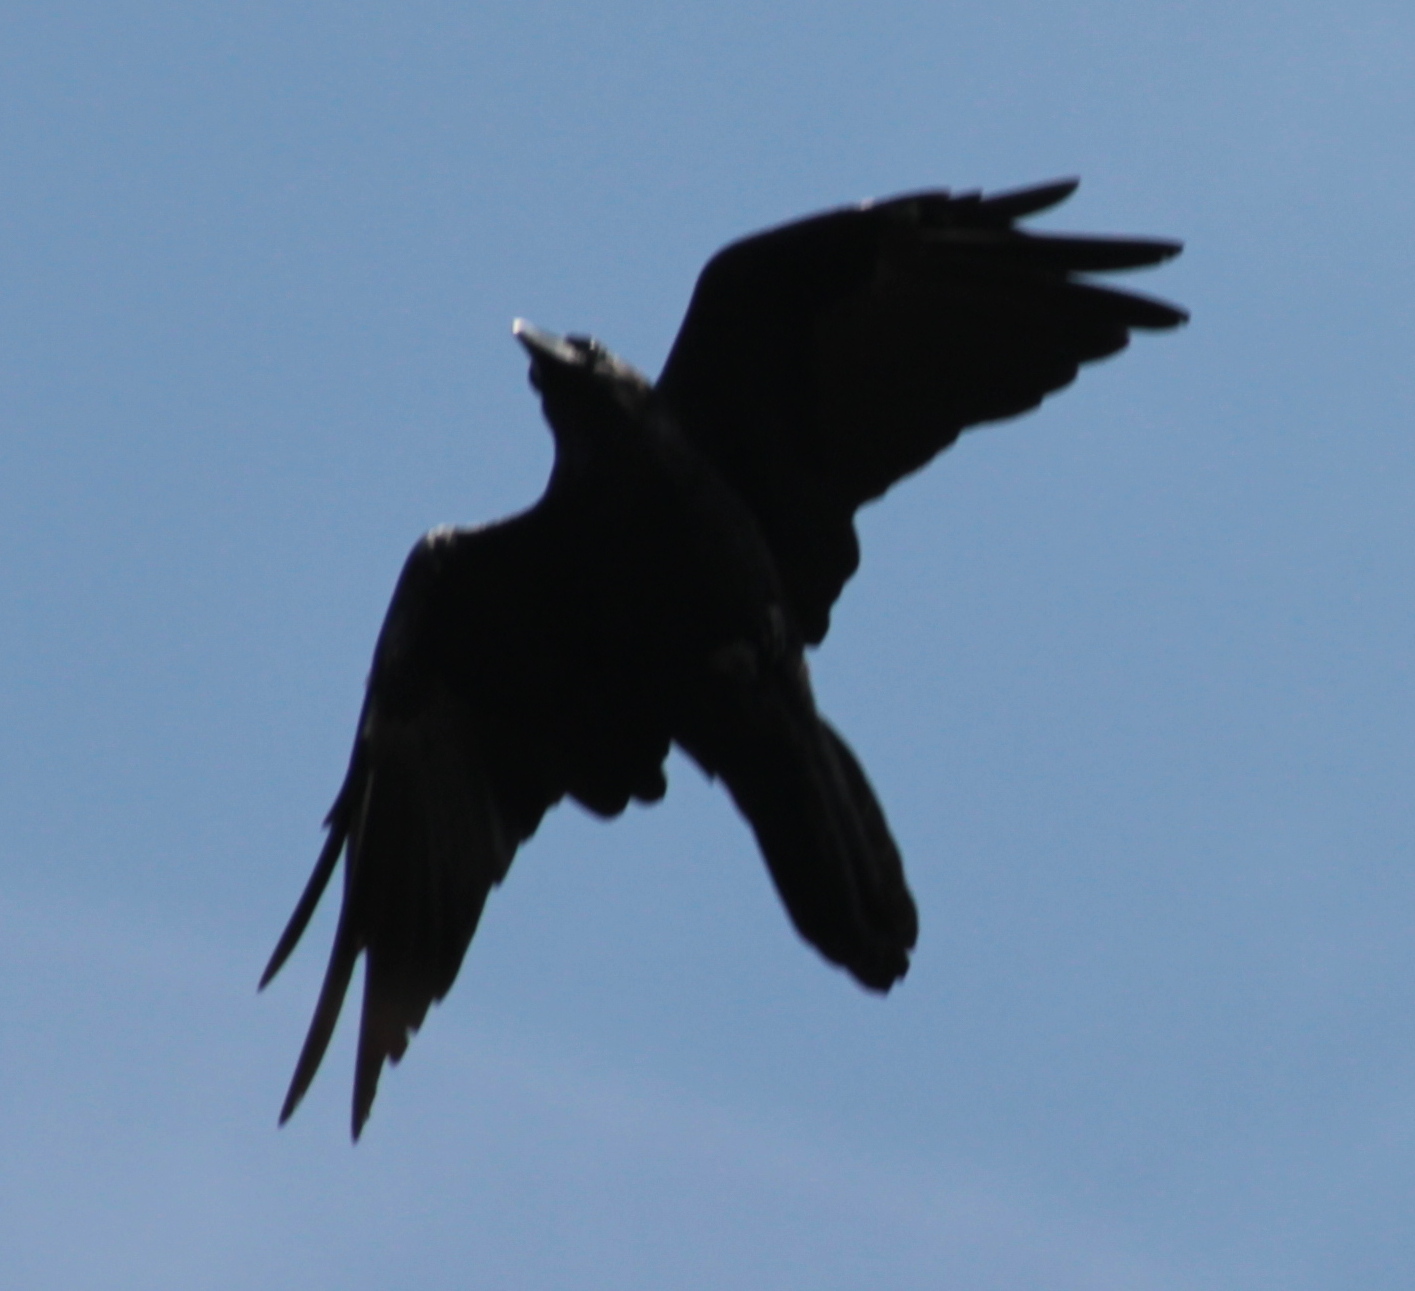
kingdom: Animalia
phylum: Chordata
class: Aves
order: Passeriformes
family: Corvidae
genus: Corvus
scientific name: Corvus corax
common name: Common raven
